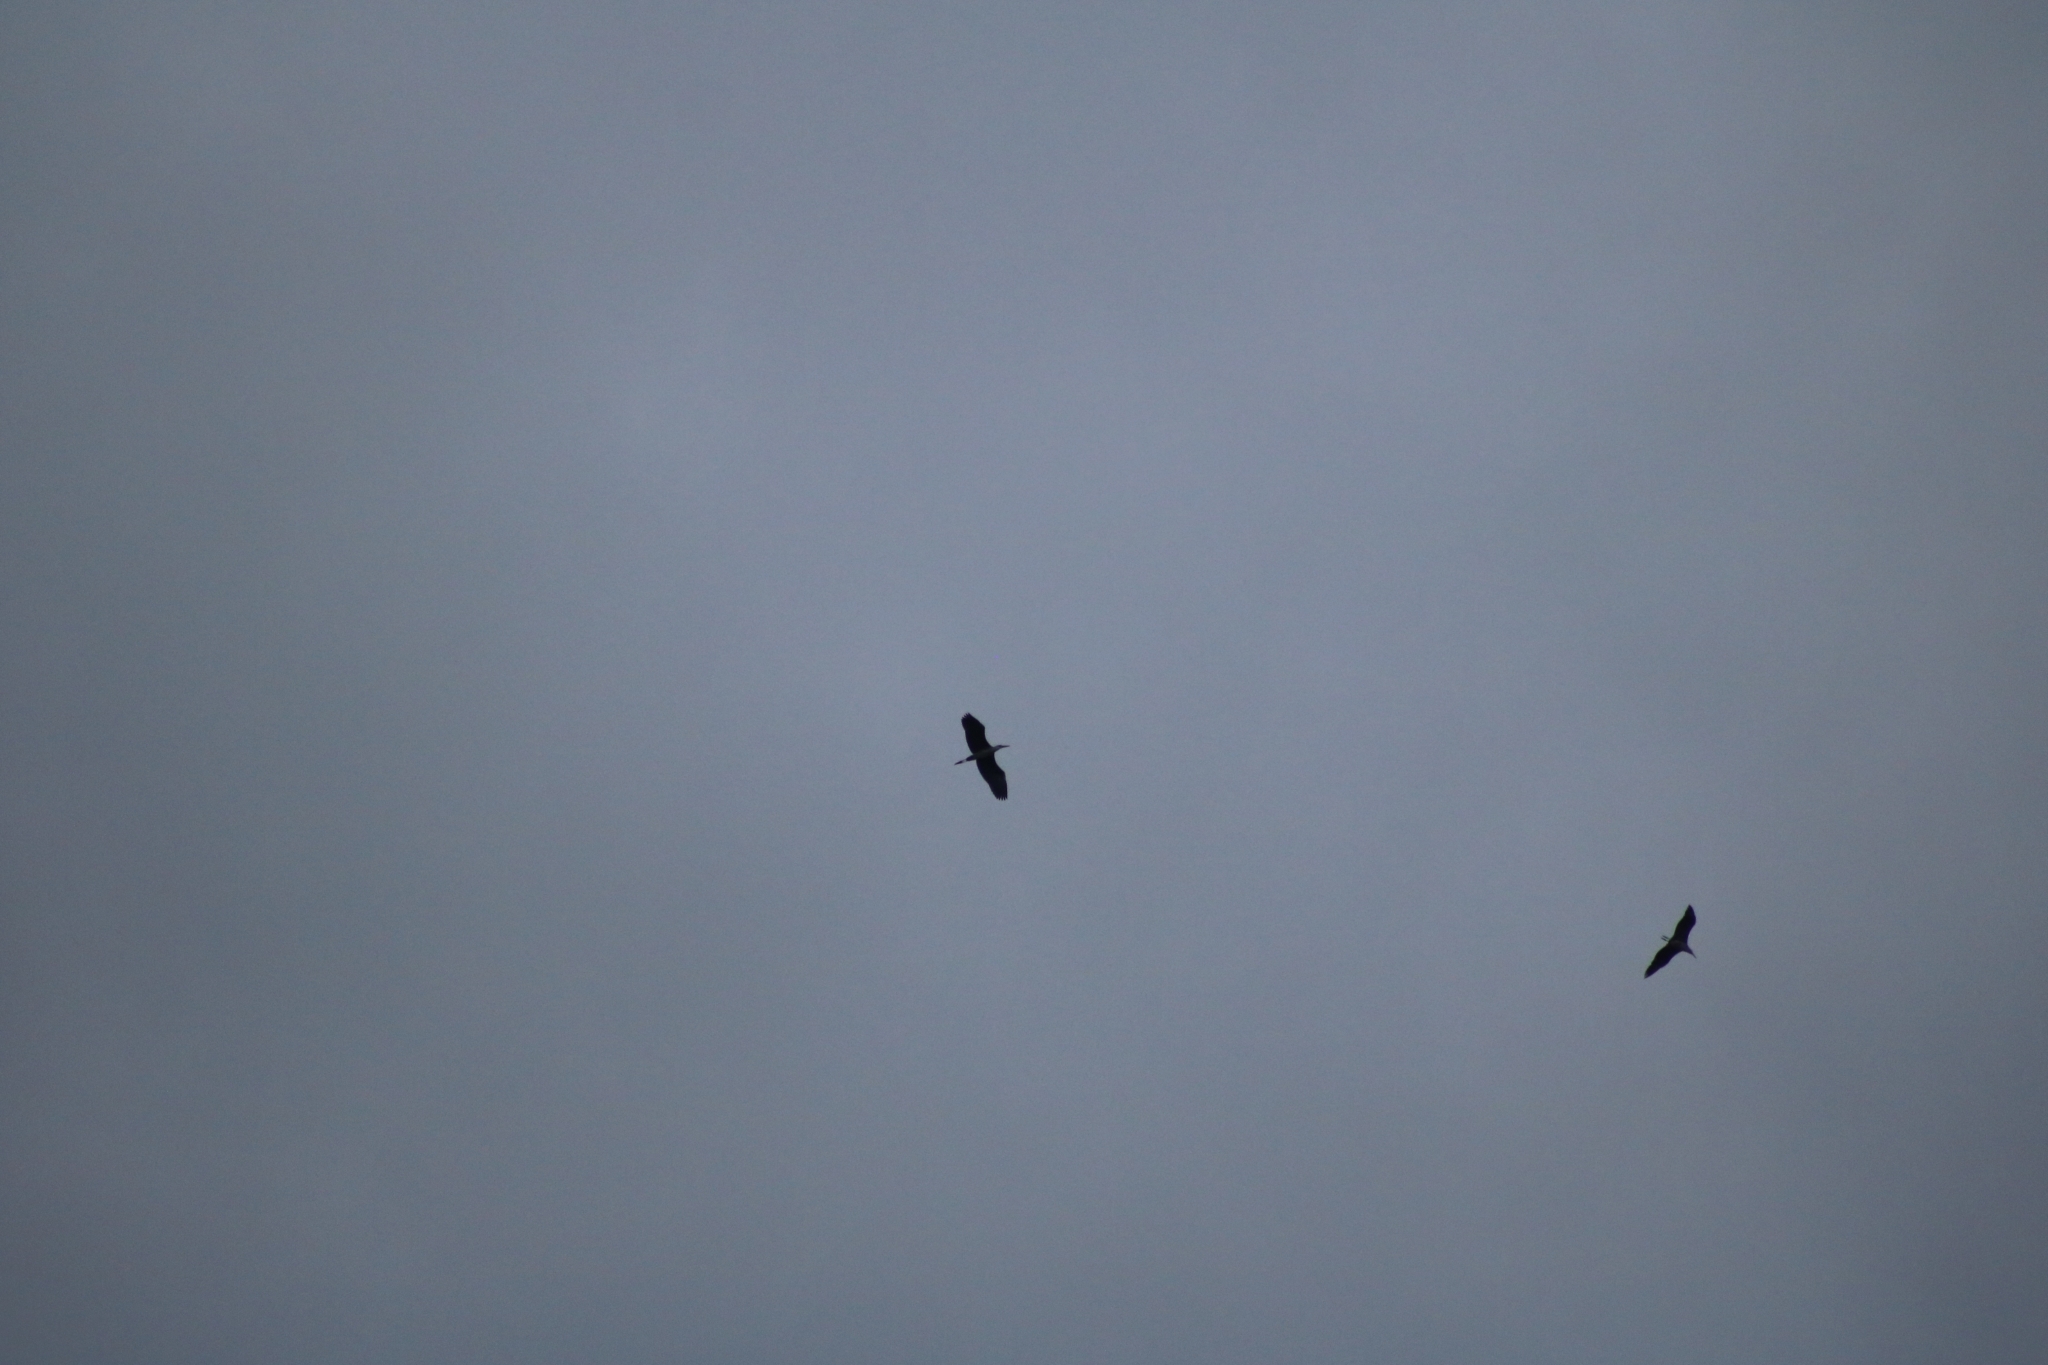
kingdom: Animalia
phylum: Chordata
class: Aves
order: Pelecaniformes
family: Ardeidae
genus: Ardea
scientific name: Ardea cinerea
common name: Grey heron
